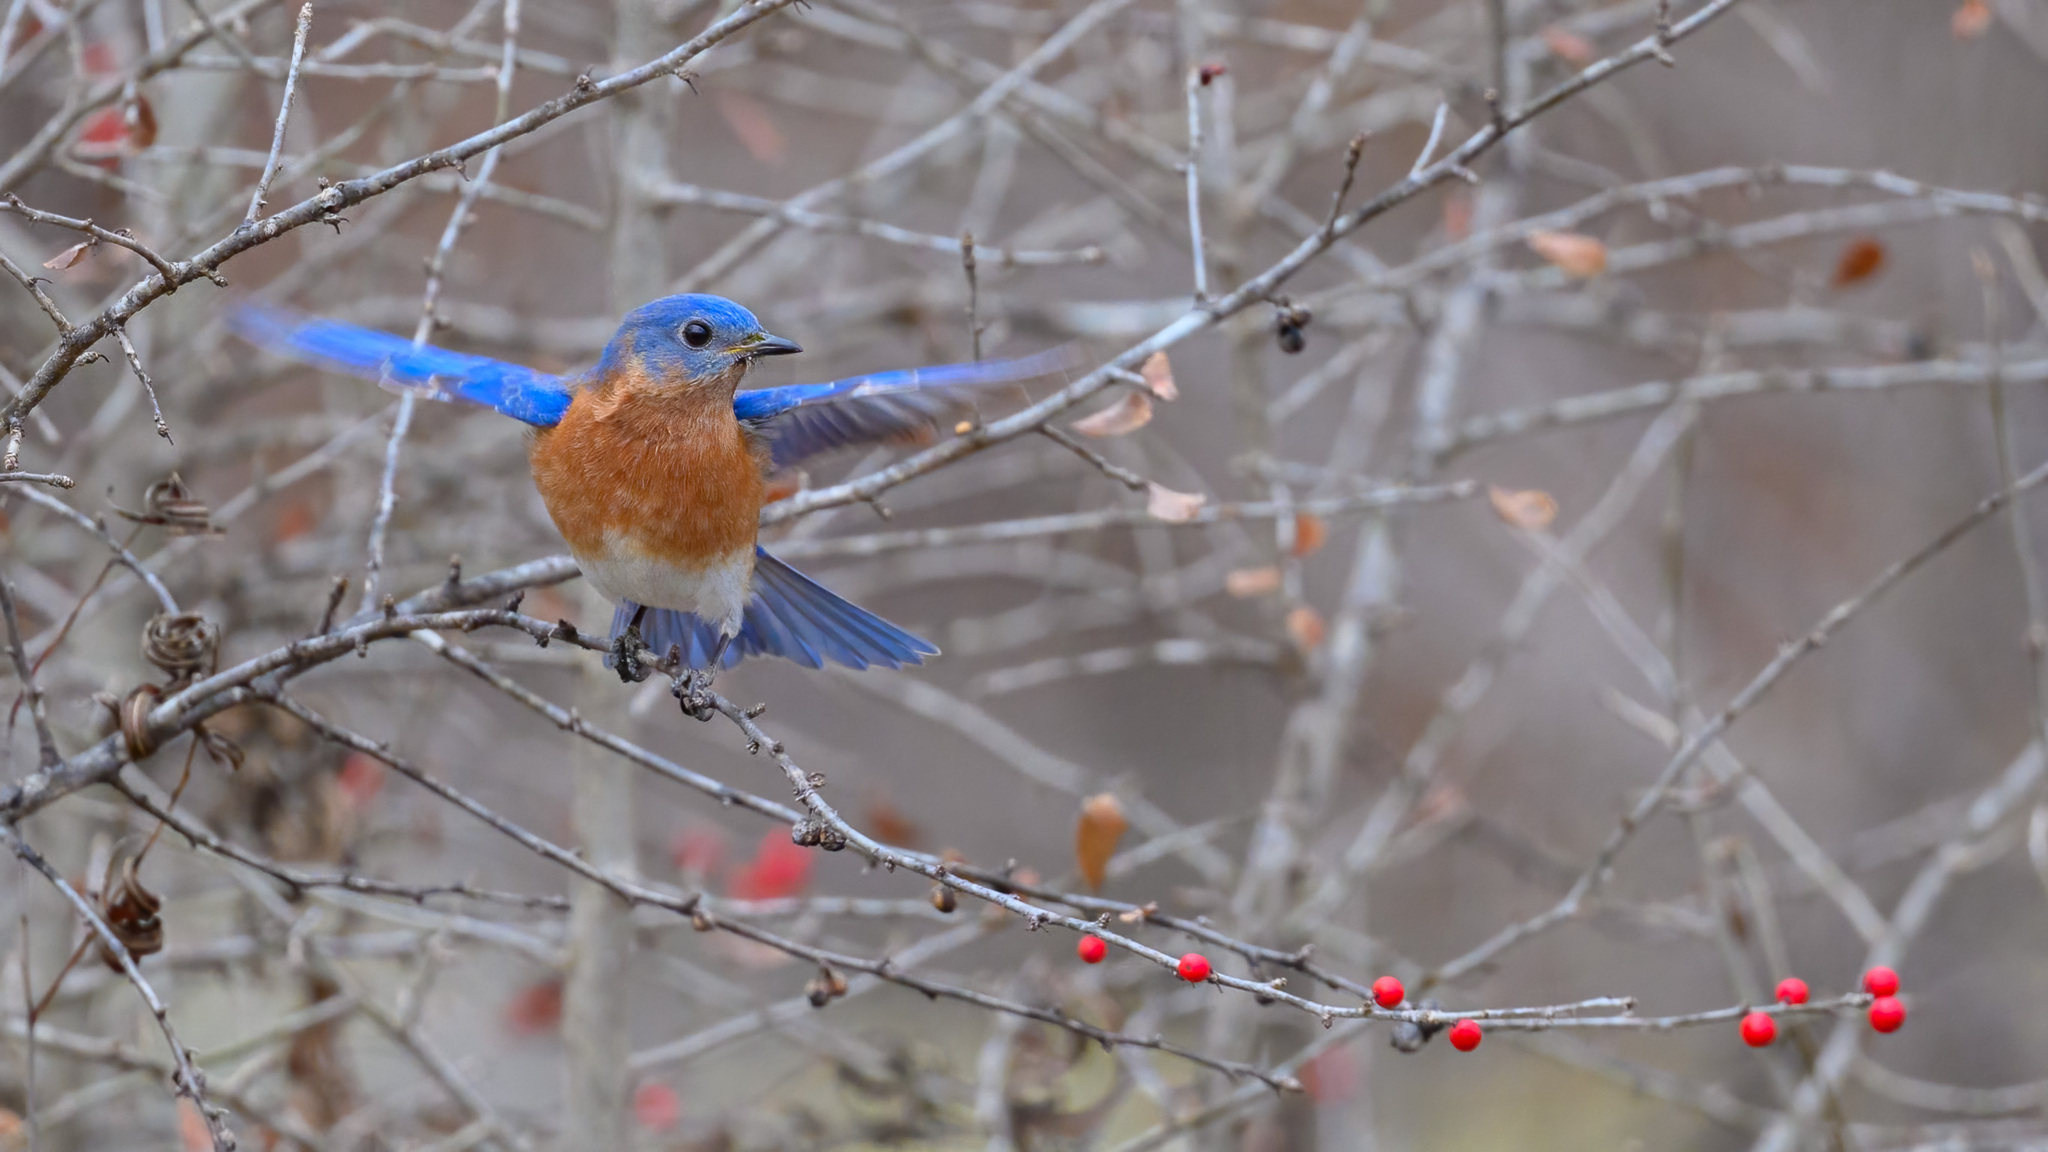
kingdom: Animalia
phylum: Chordata
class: Aves
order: Passeriformes
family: Turdidae
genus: Sialia
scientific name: Sialia sialis
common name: Eastern bluebird
